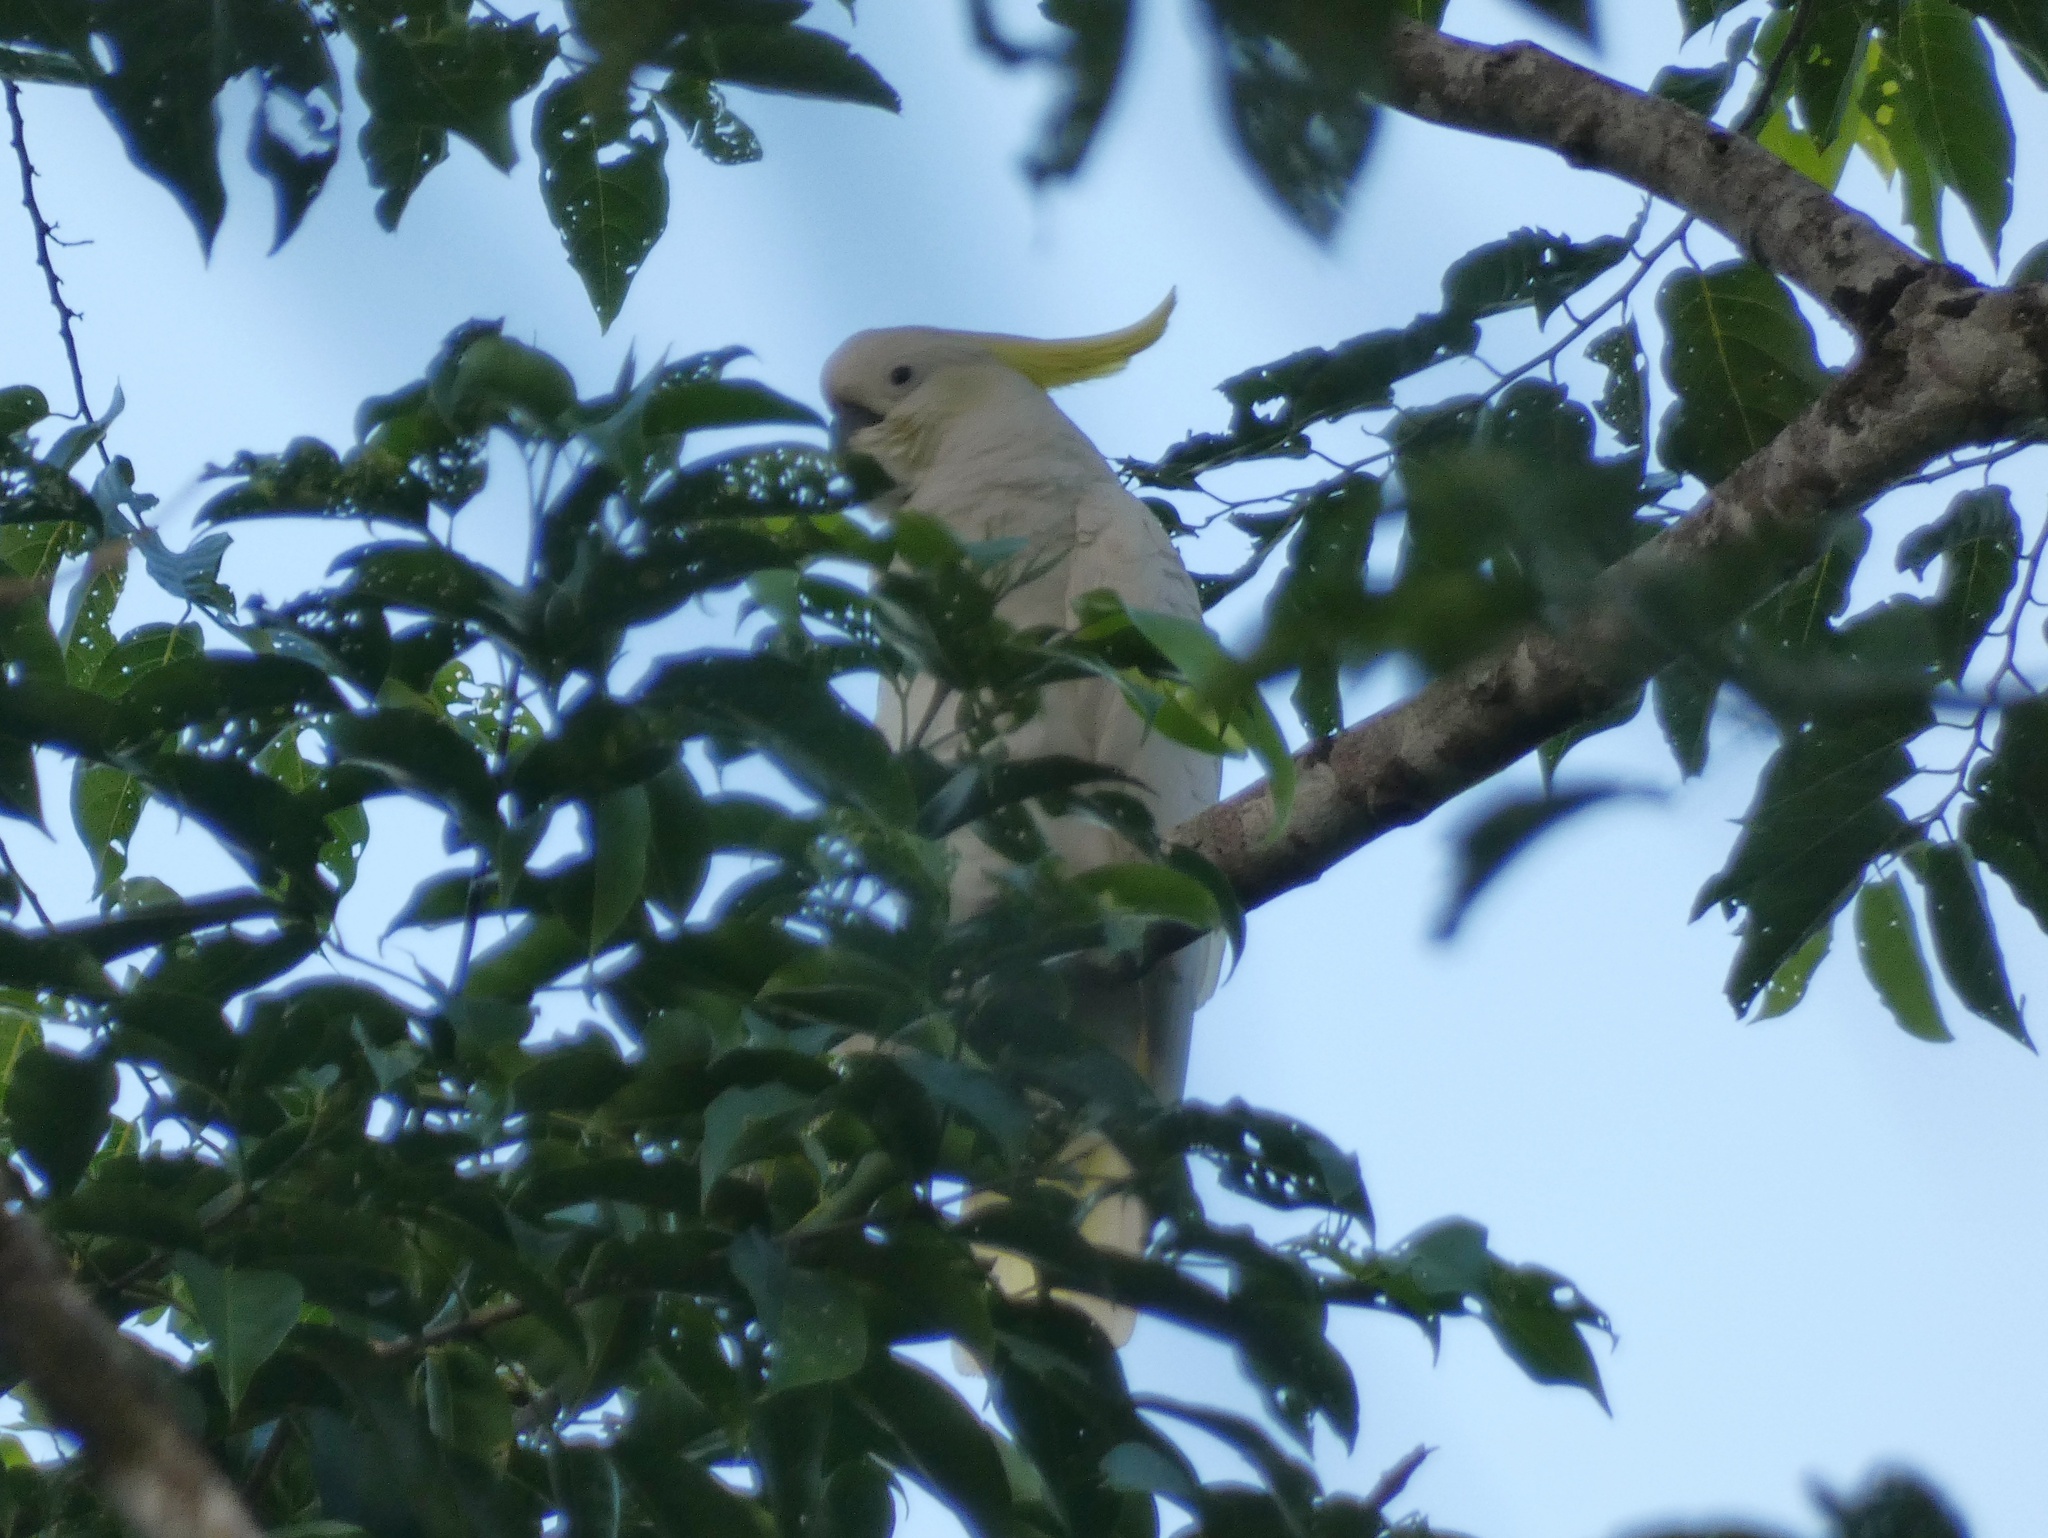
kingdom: Animalia
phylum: Chordata
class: Aves
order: Psittaciformes
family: Psittacidae
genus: Cacatua
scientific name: Cacatua galerita
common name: Sulphur-crested cockatoo
